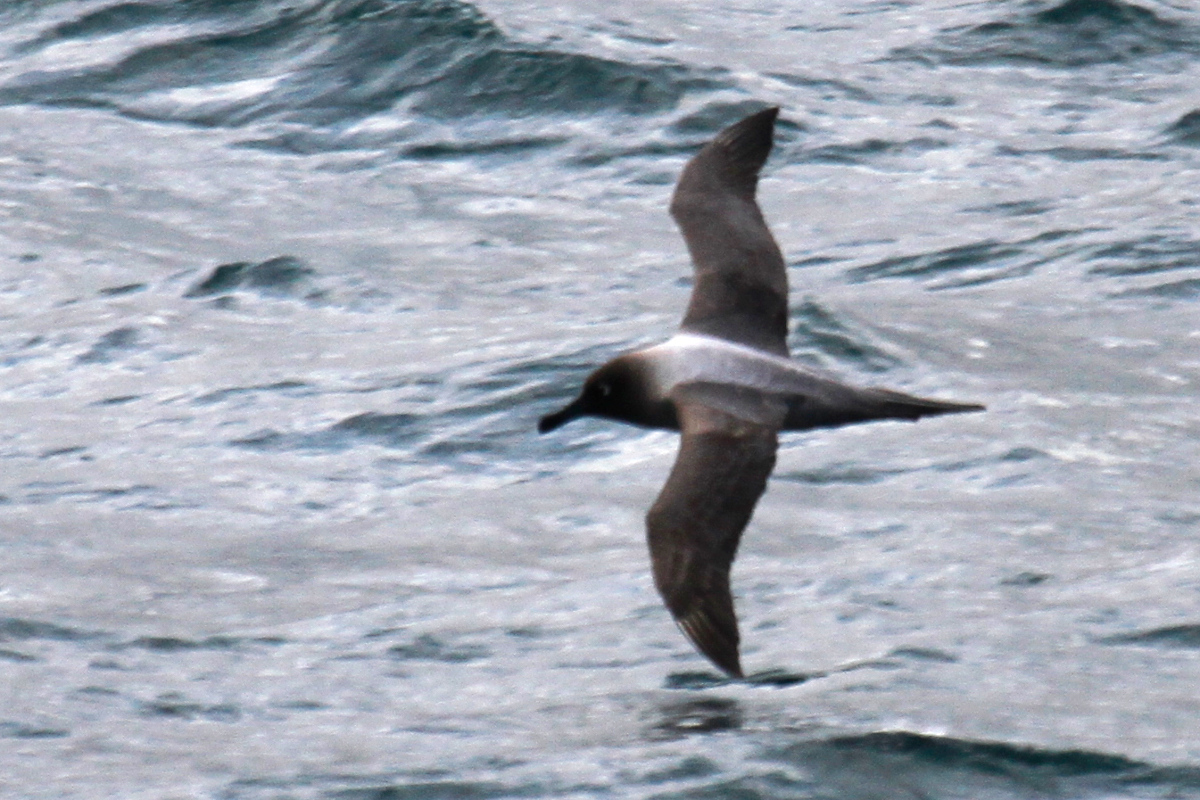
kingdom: Animalia
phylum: Chordata
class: Aves
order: Procellariiformes
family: Diomedeidae
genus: Phoebetria
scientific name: Phoebetria palpebrata
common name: Light-mantled albatross
